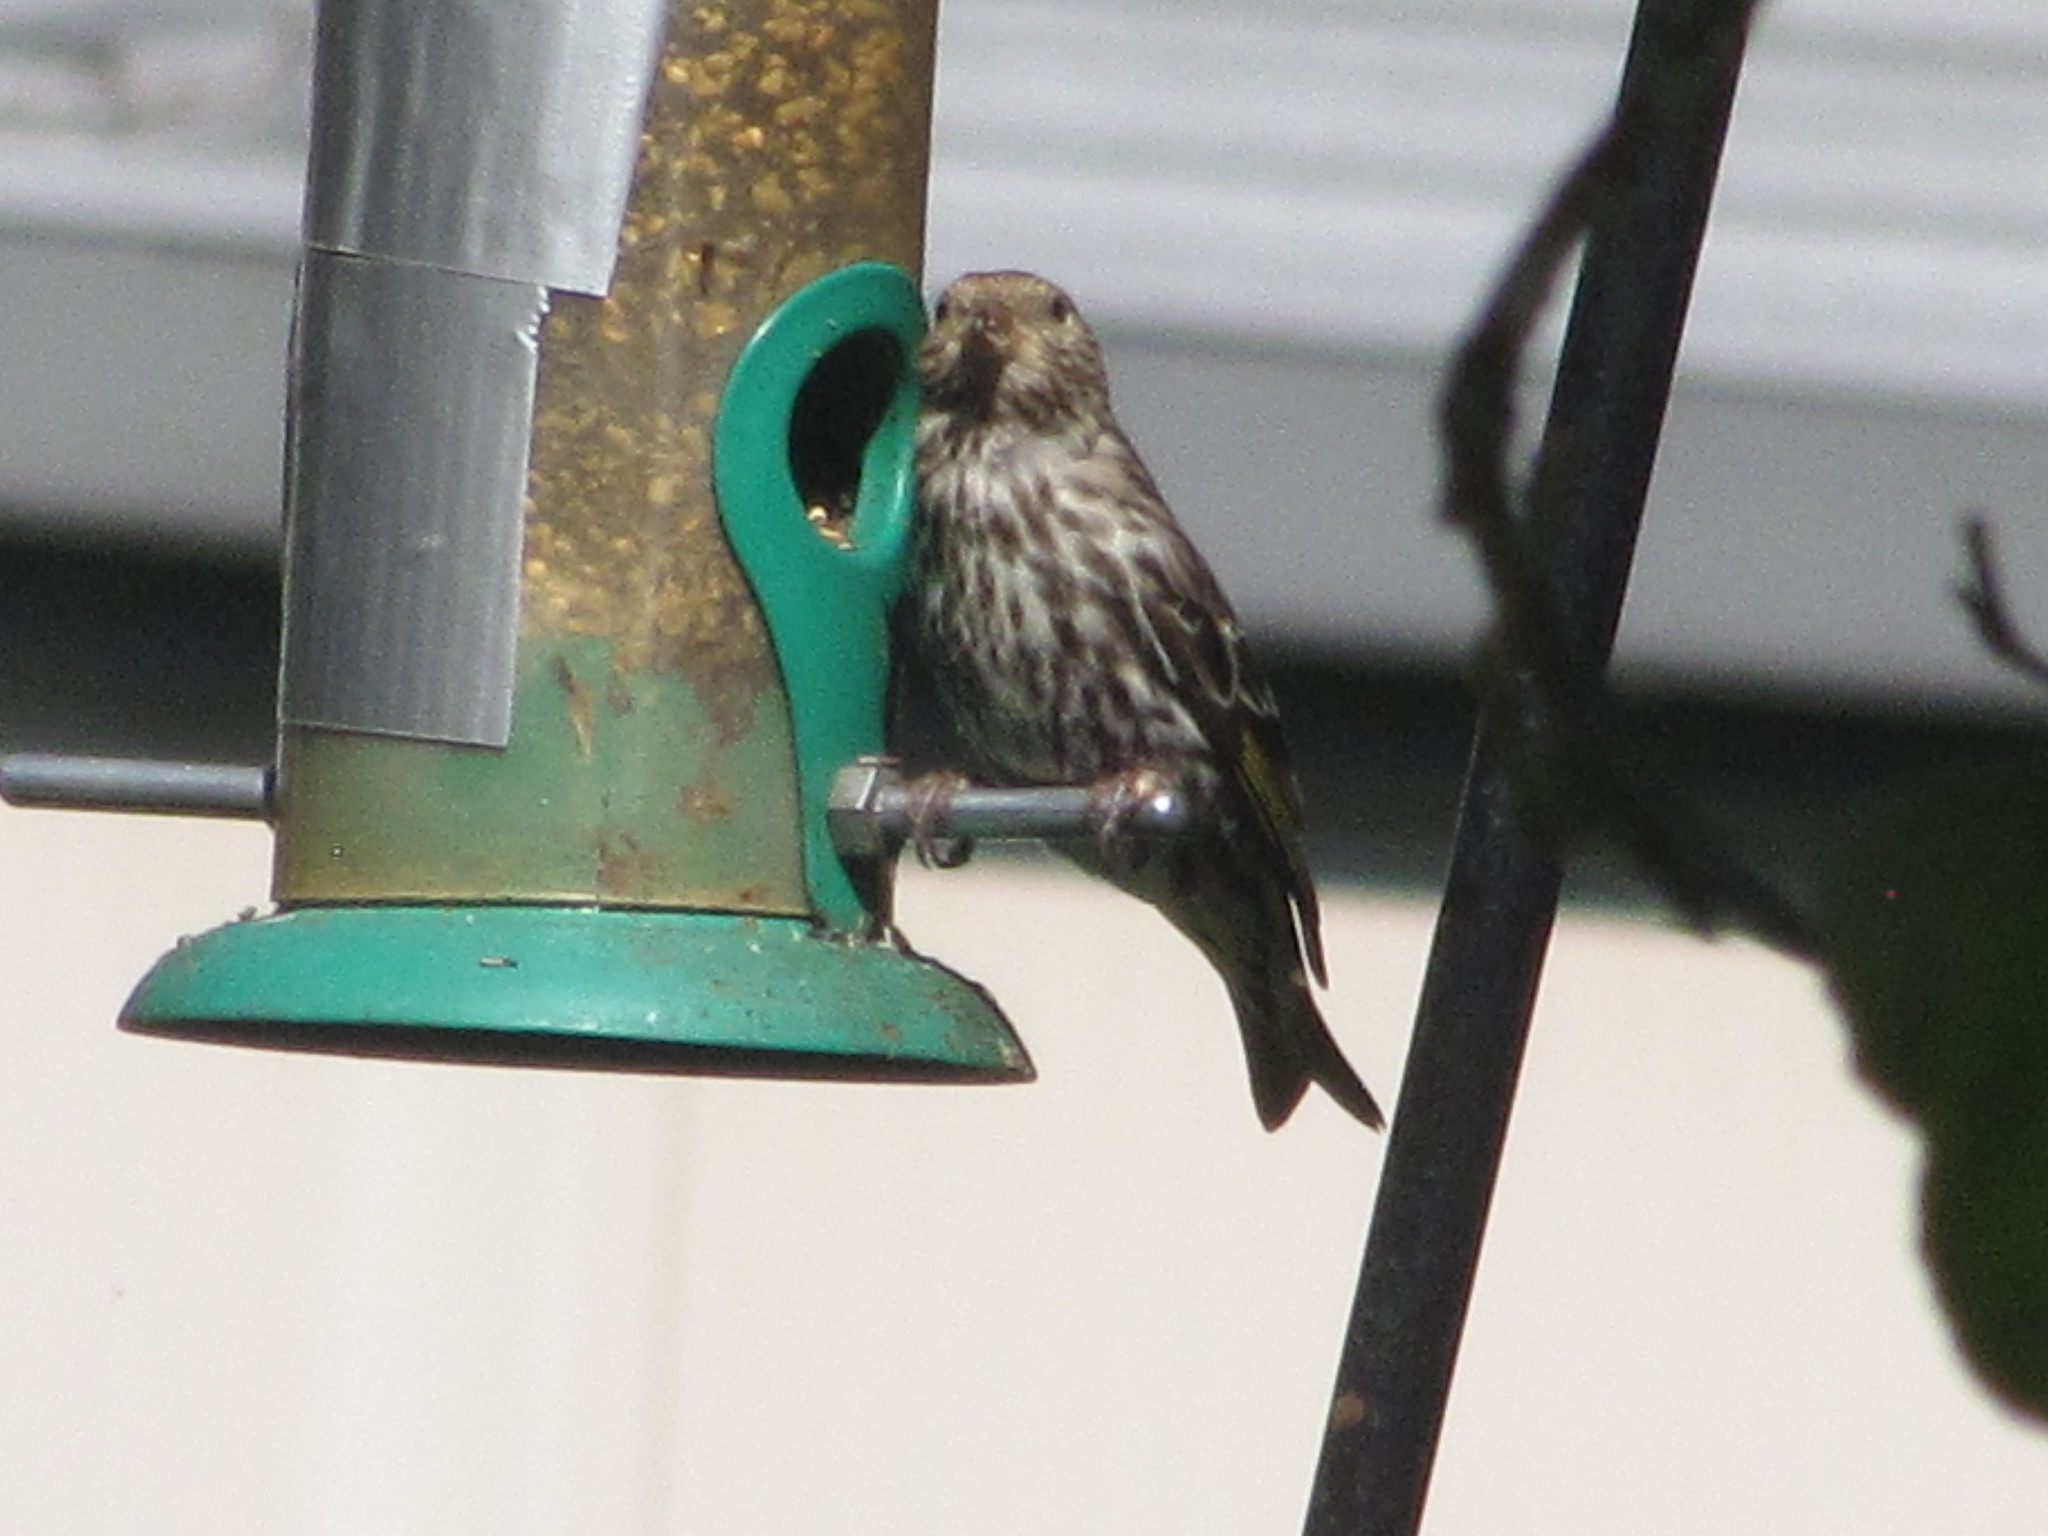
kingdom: Animalia
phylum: Chordata
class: Aves
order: Passeriformes
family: Fringillidae
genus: Spinus
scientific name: Spinus pinus
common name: Pine siskin
